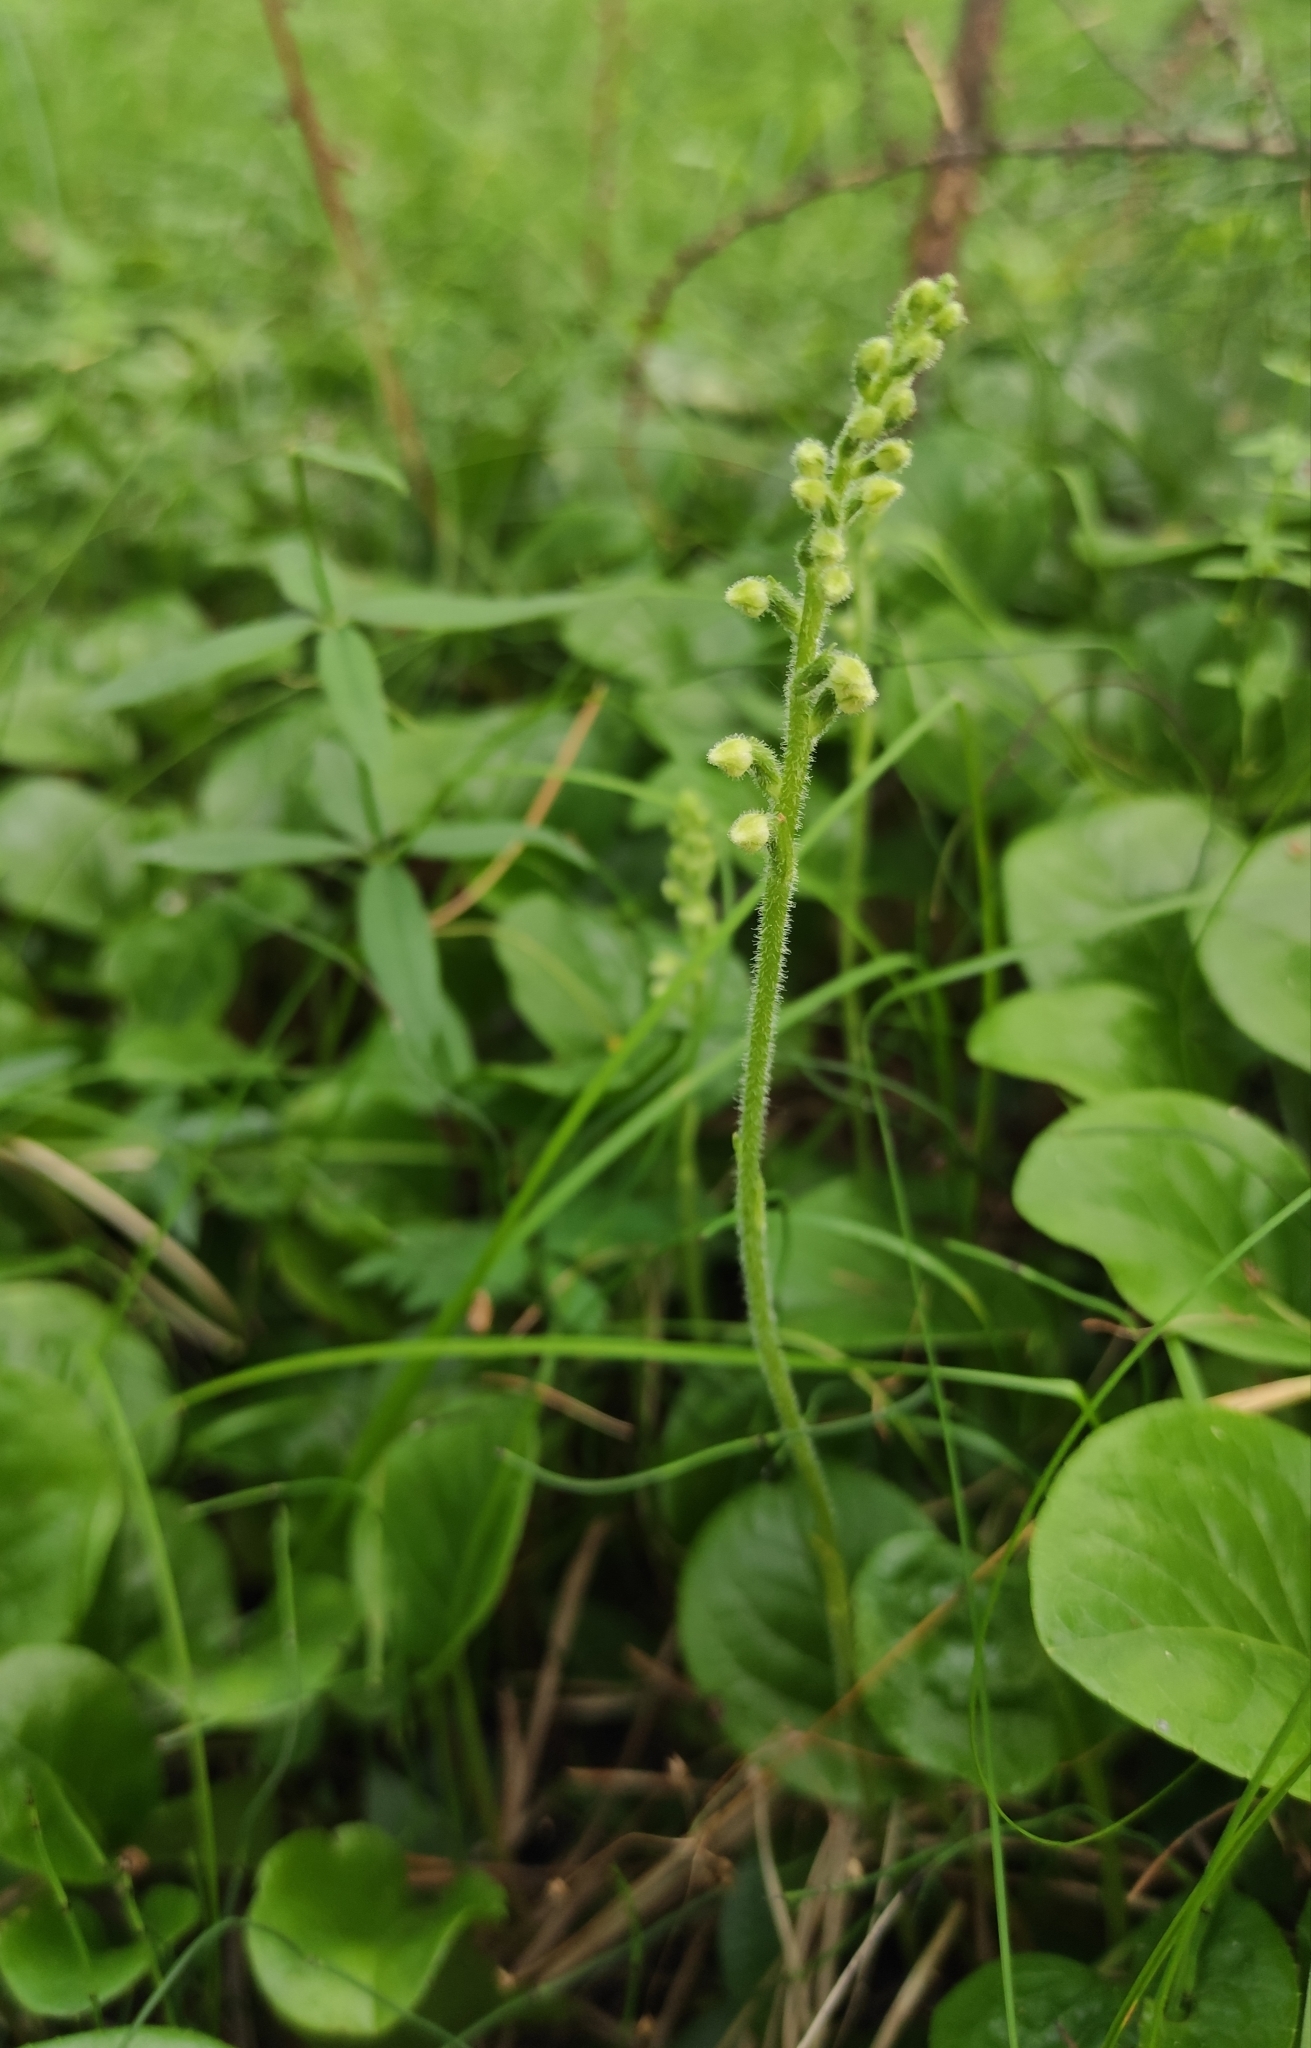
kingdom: Plantae
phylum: Tracheophyta
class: Liliopsida
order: Asparagales
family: Orchidaceae
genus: Goodyera
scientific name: Goodyera repens
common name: Creeping lady's-tresses
